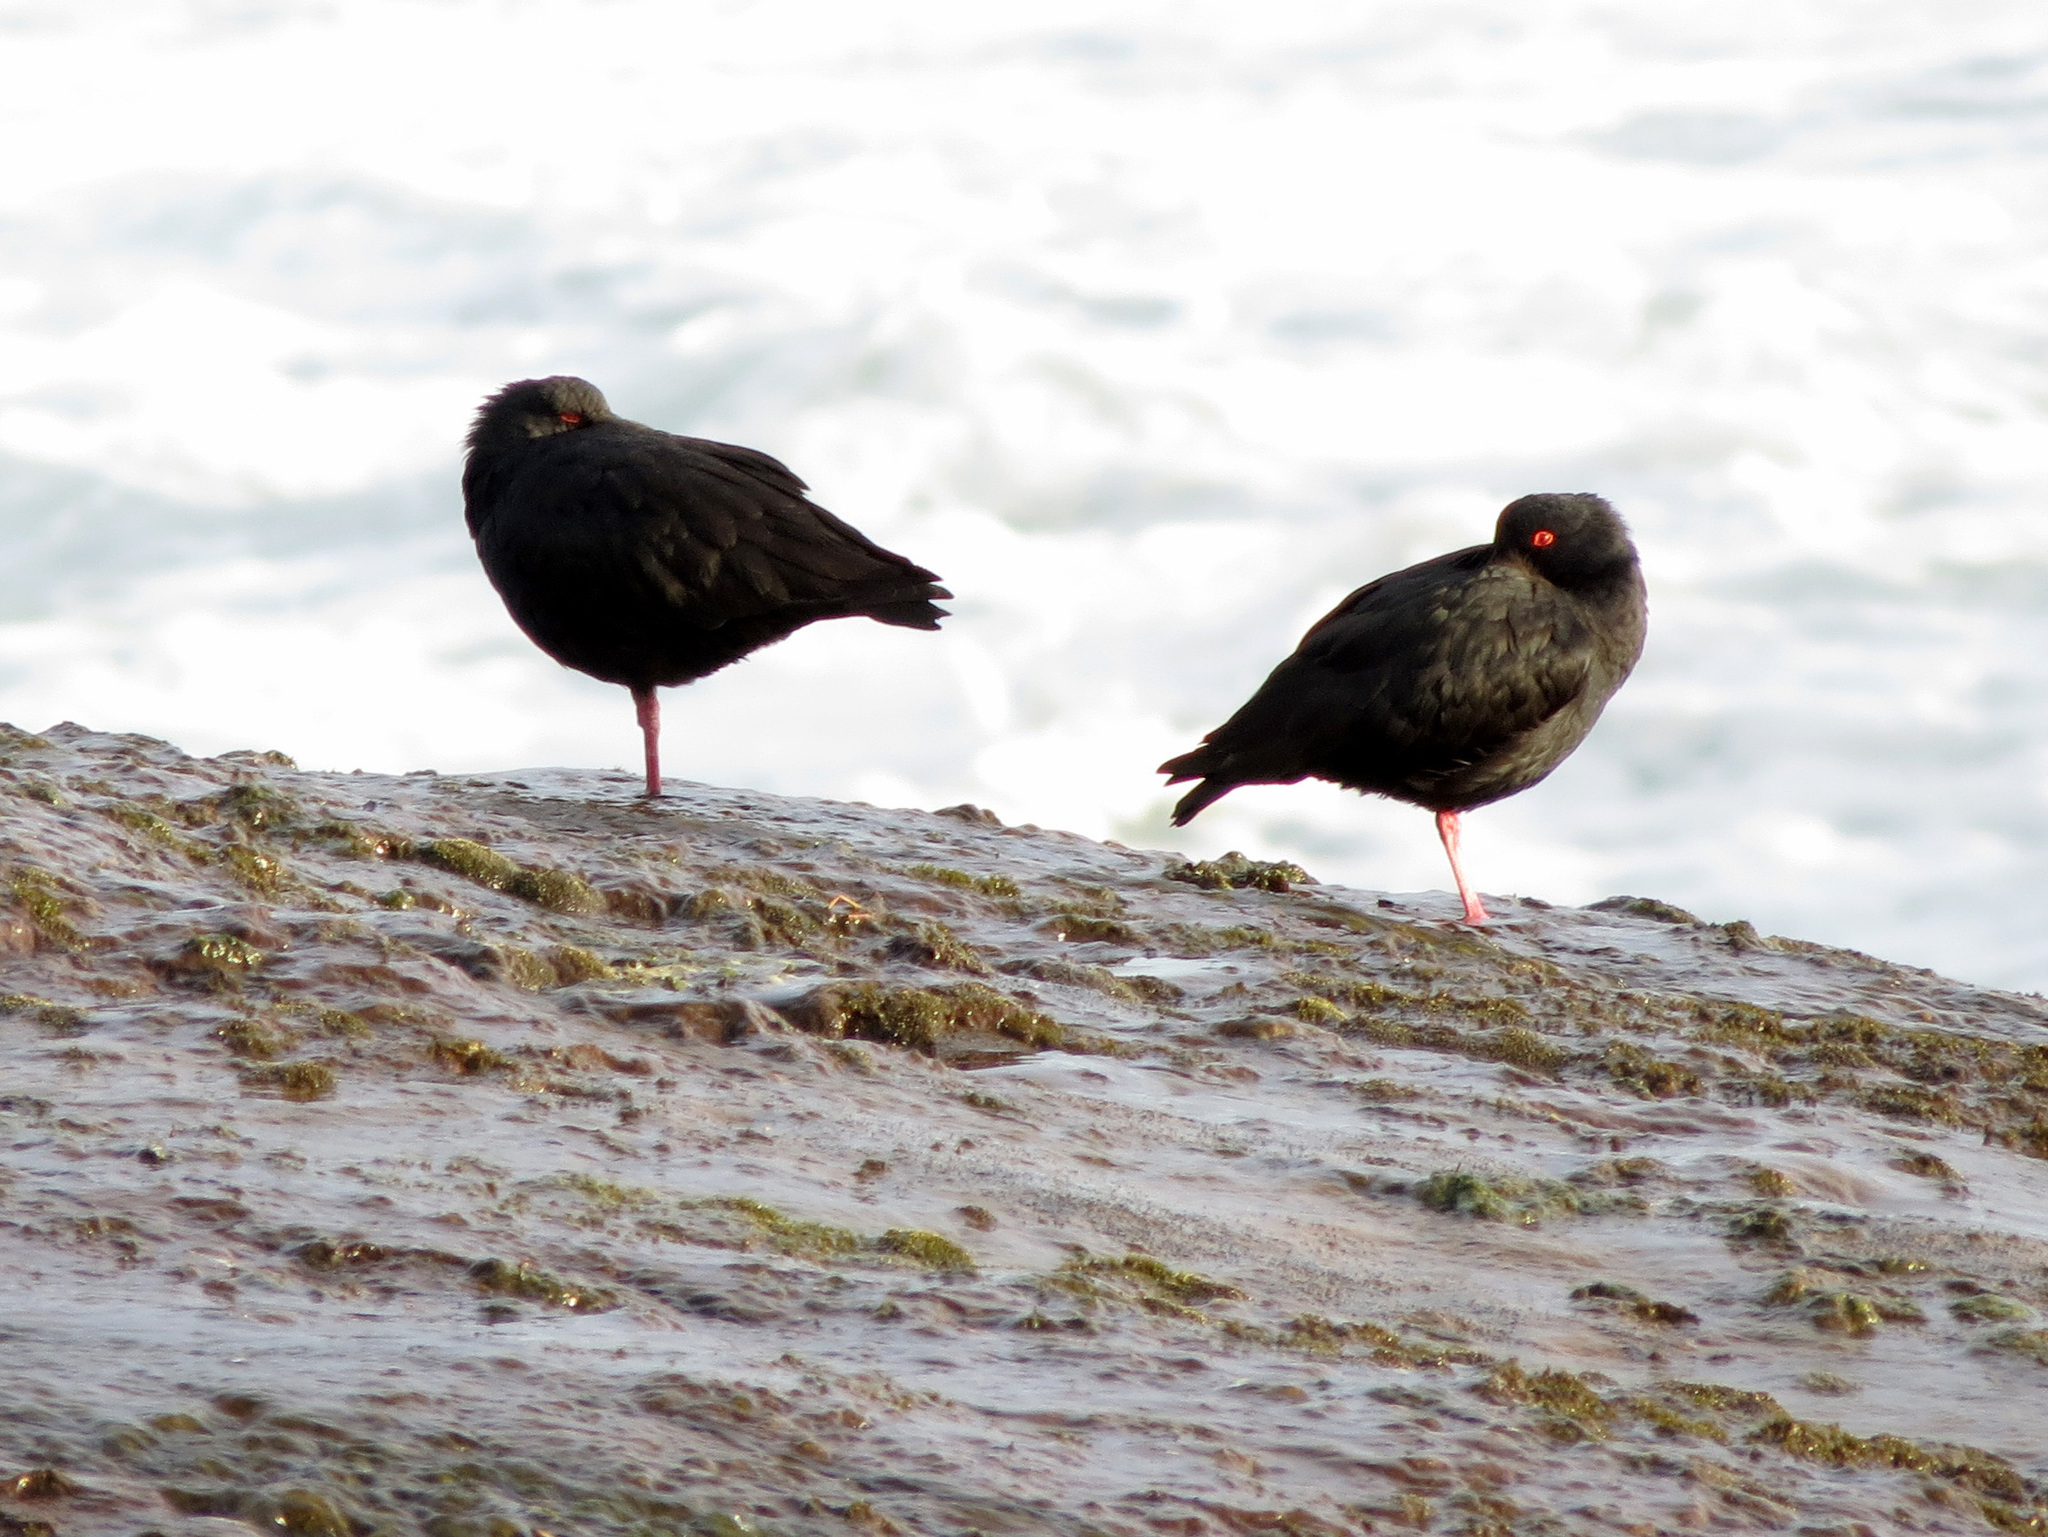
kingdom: Animalia
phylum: Chordata
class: Aves
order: Charadriiformes
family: Haematopodidae
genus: Haematopus
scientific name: Haematopus unicolor
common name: Variable oystercatcher
